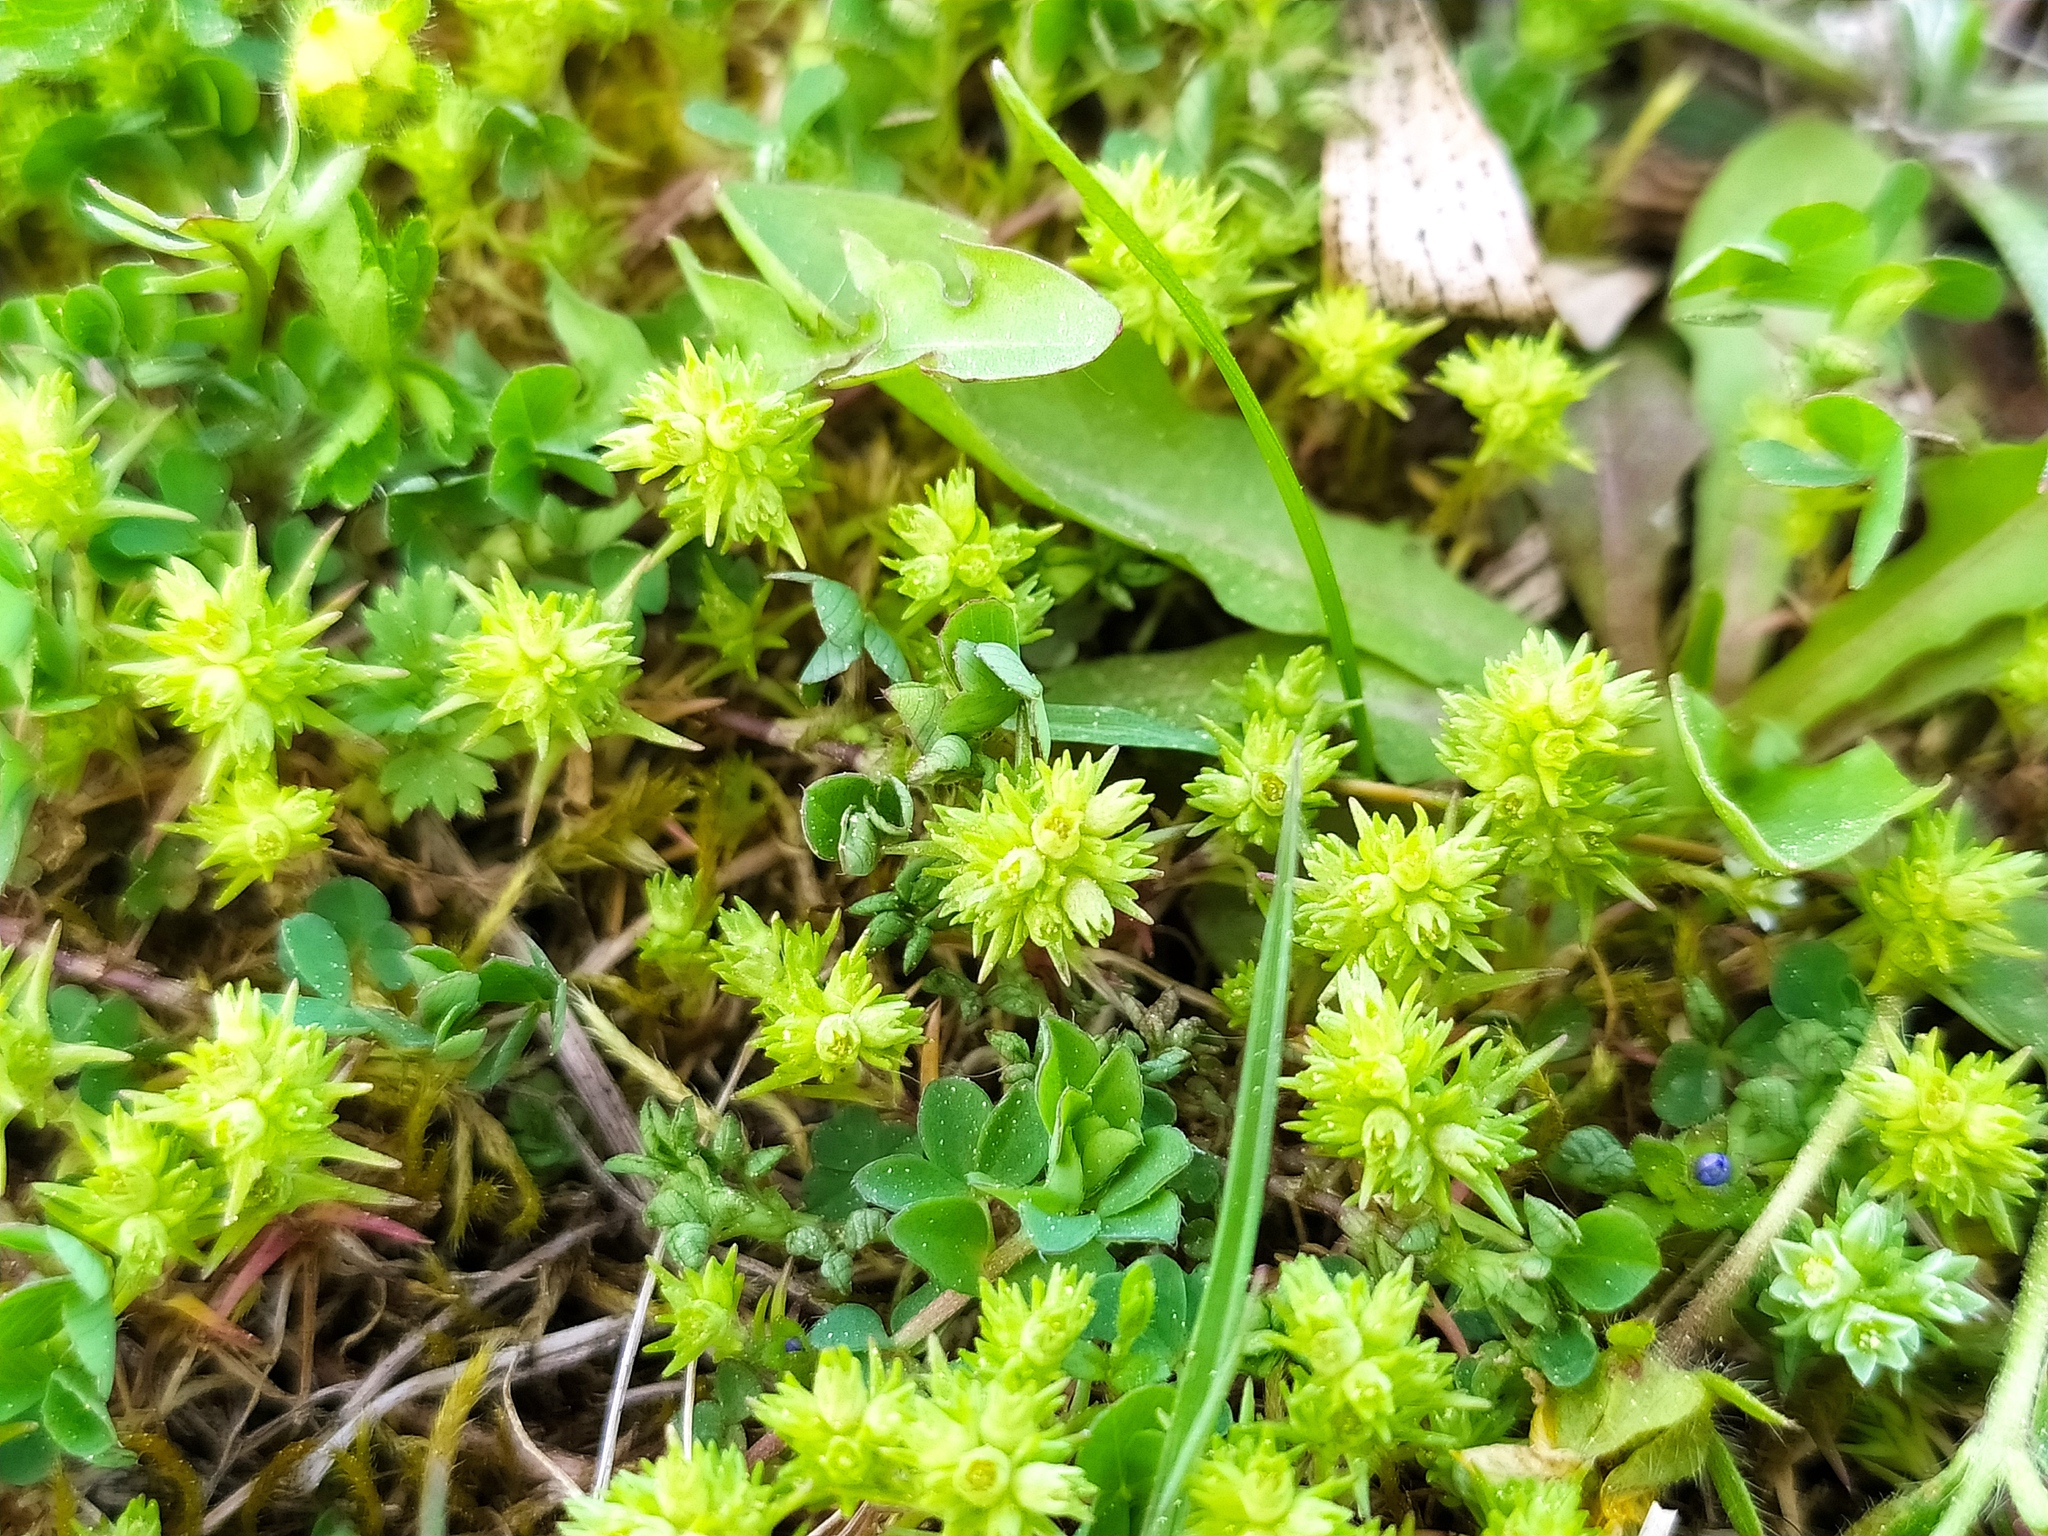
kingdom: Plantae
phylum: Tracheophyta
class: Magnoliopsida
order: Caryophyllales
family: Caryophyllaceae
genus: Scleranthus
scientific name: Scleranthus verticillatus
